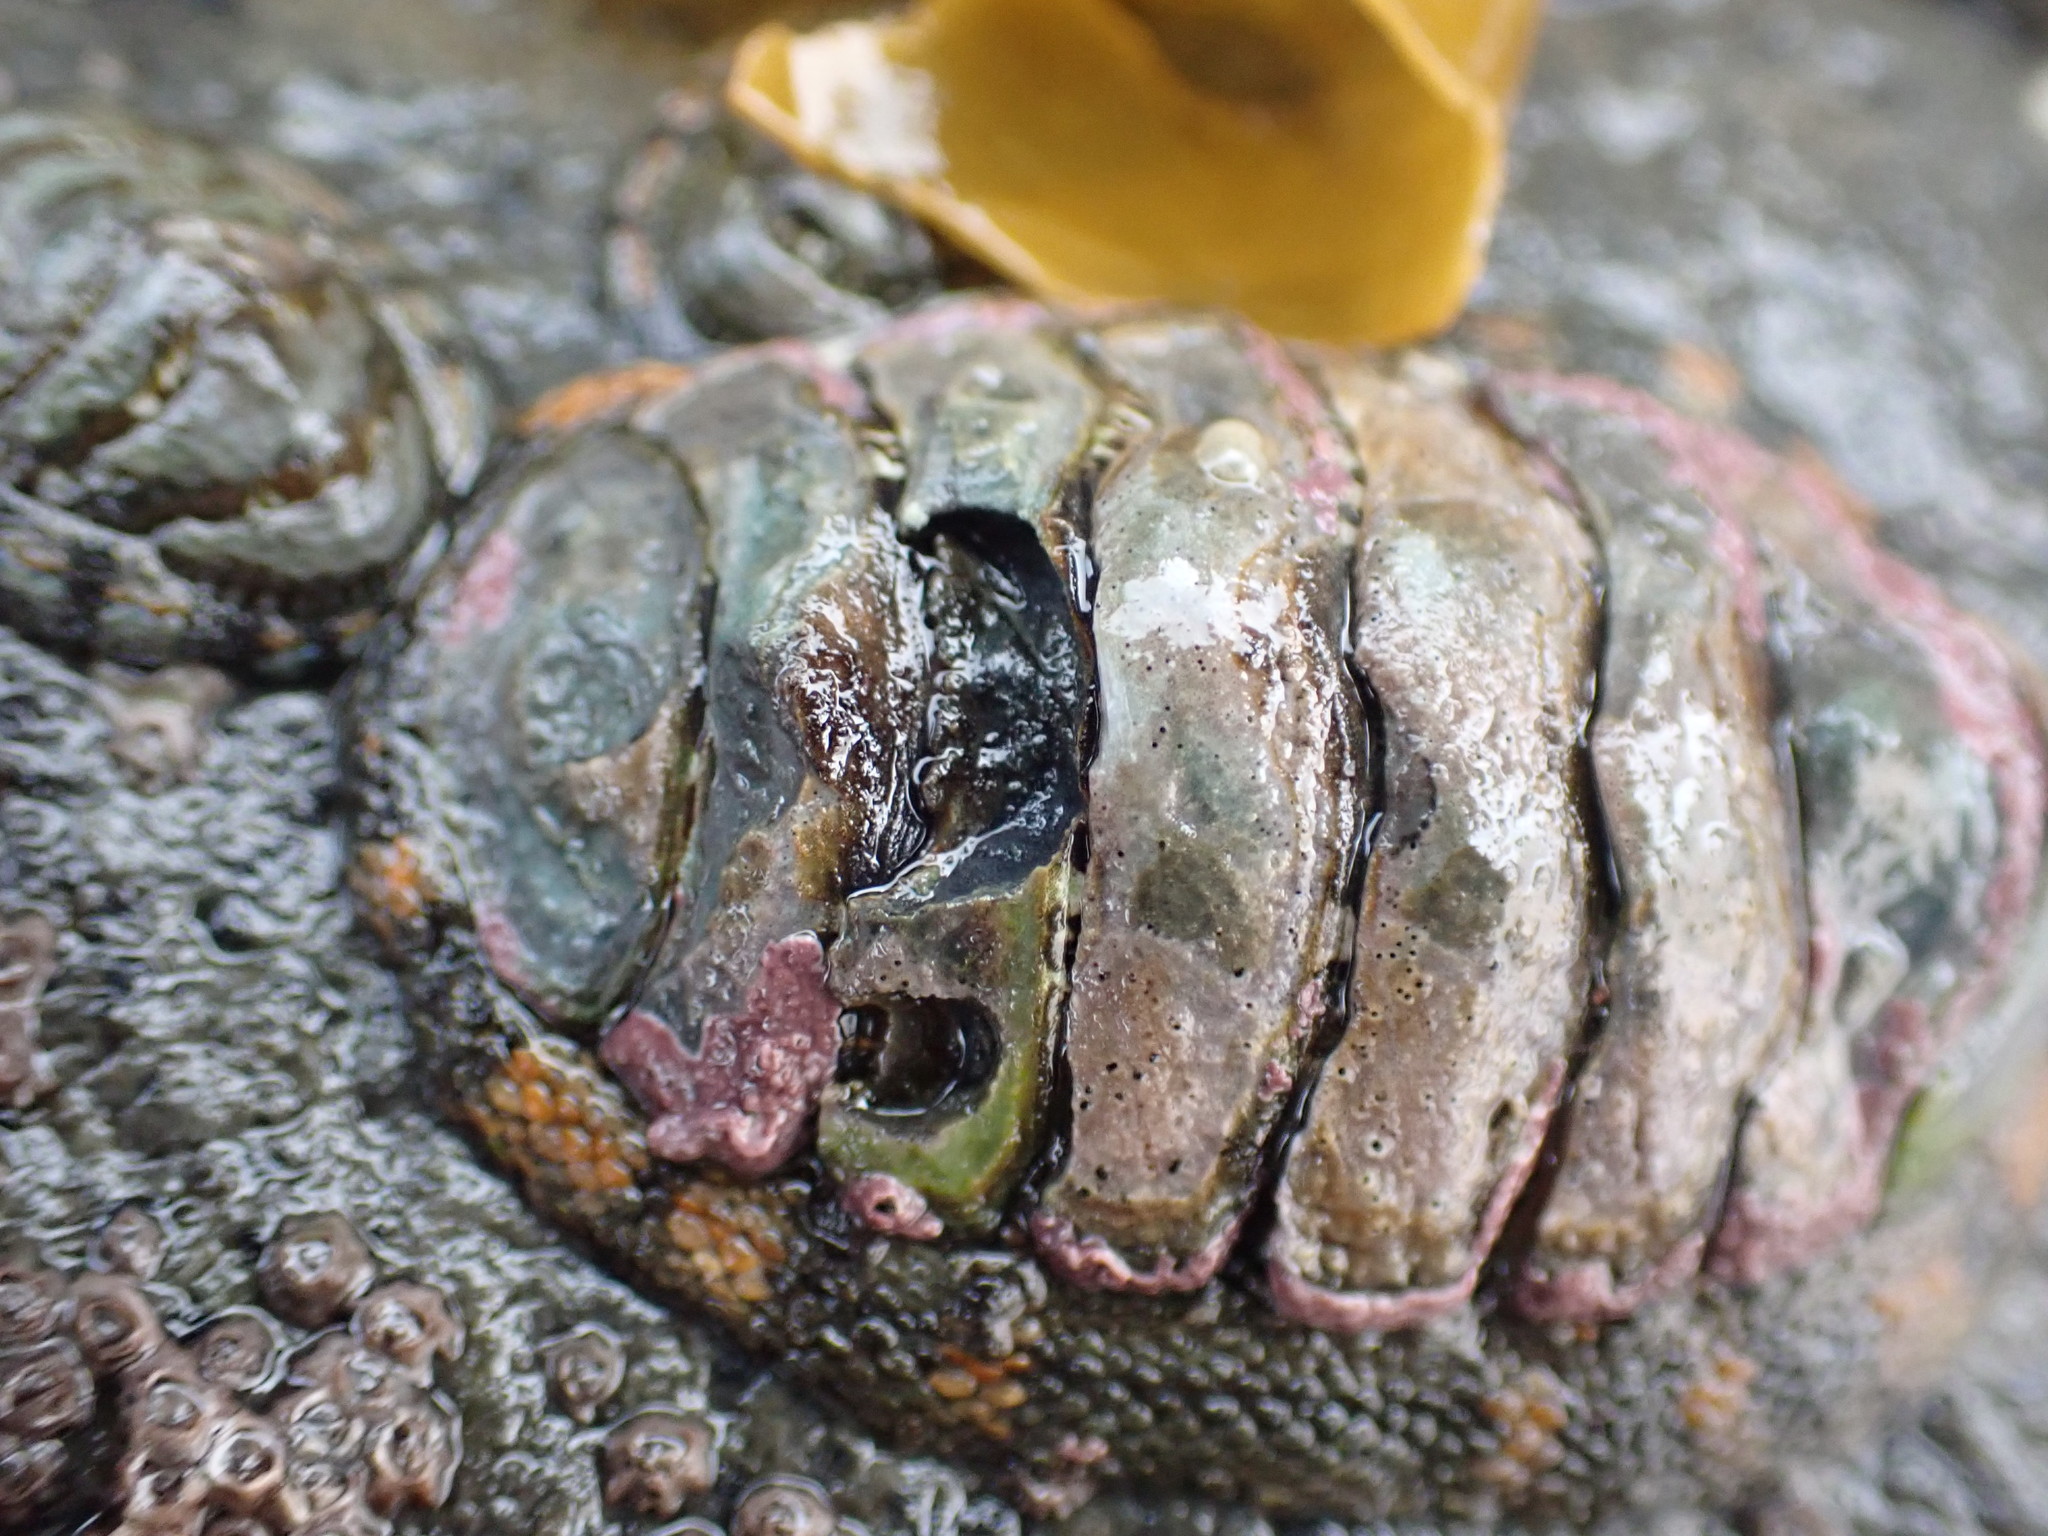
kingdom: Animalia
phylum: Mollusca
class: Polyplacophora
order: Chitonida
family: Chitonidae
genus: Sypharochiton
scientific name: Sypharochiton pelliserpentis
